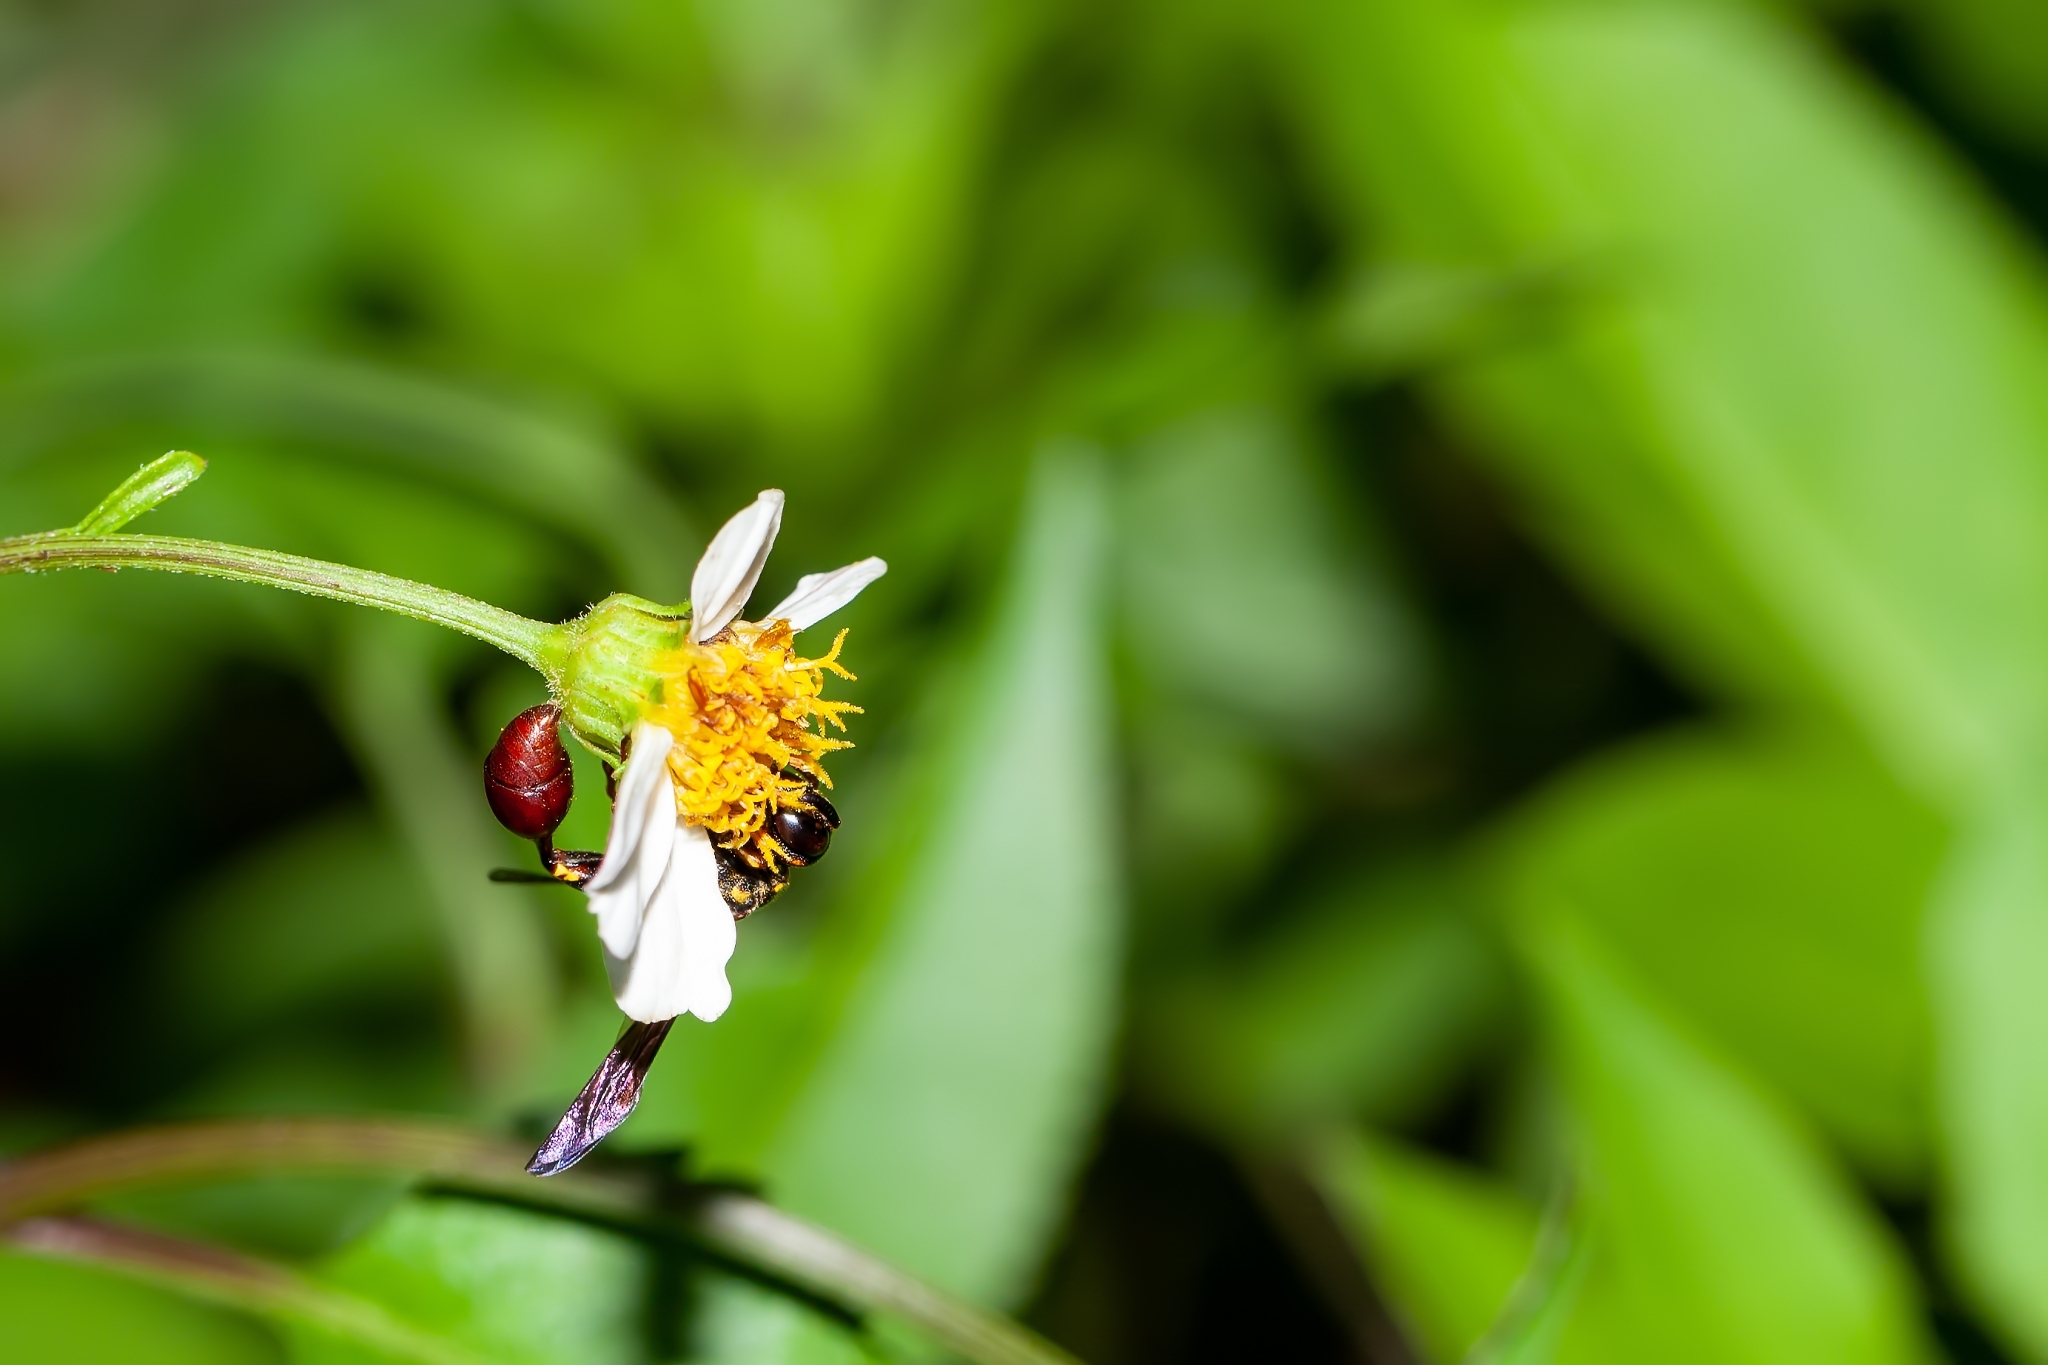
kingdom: Animalia
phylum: Arthropoda
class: Insecta
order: Hymenoptera
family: Eumenidae
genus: Zethus
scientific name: Zethus slossonae
